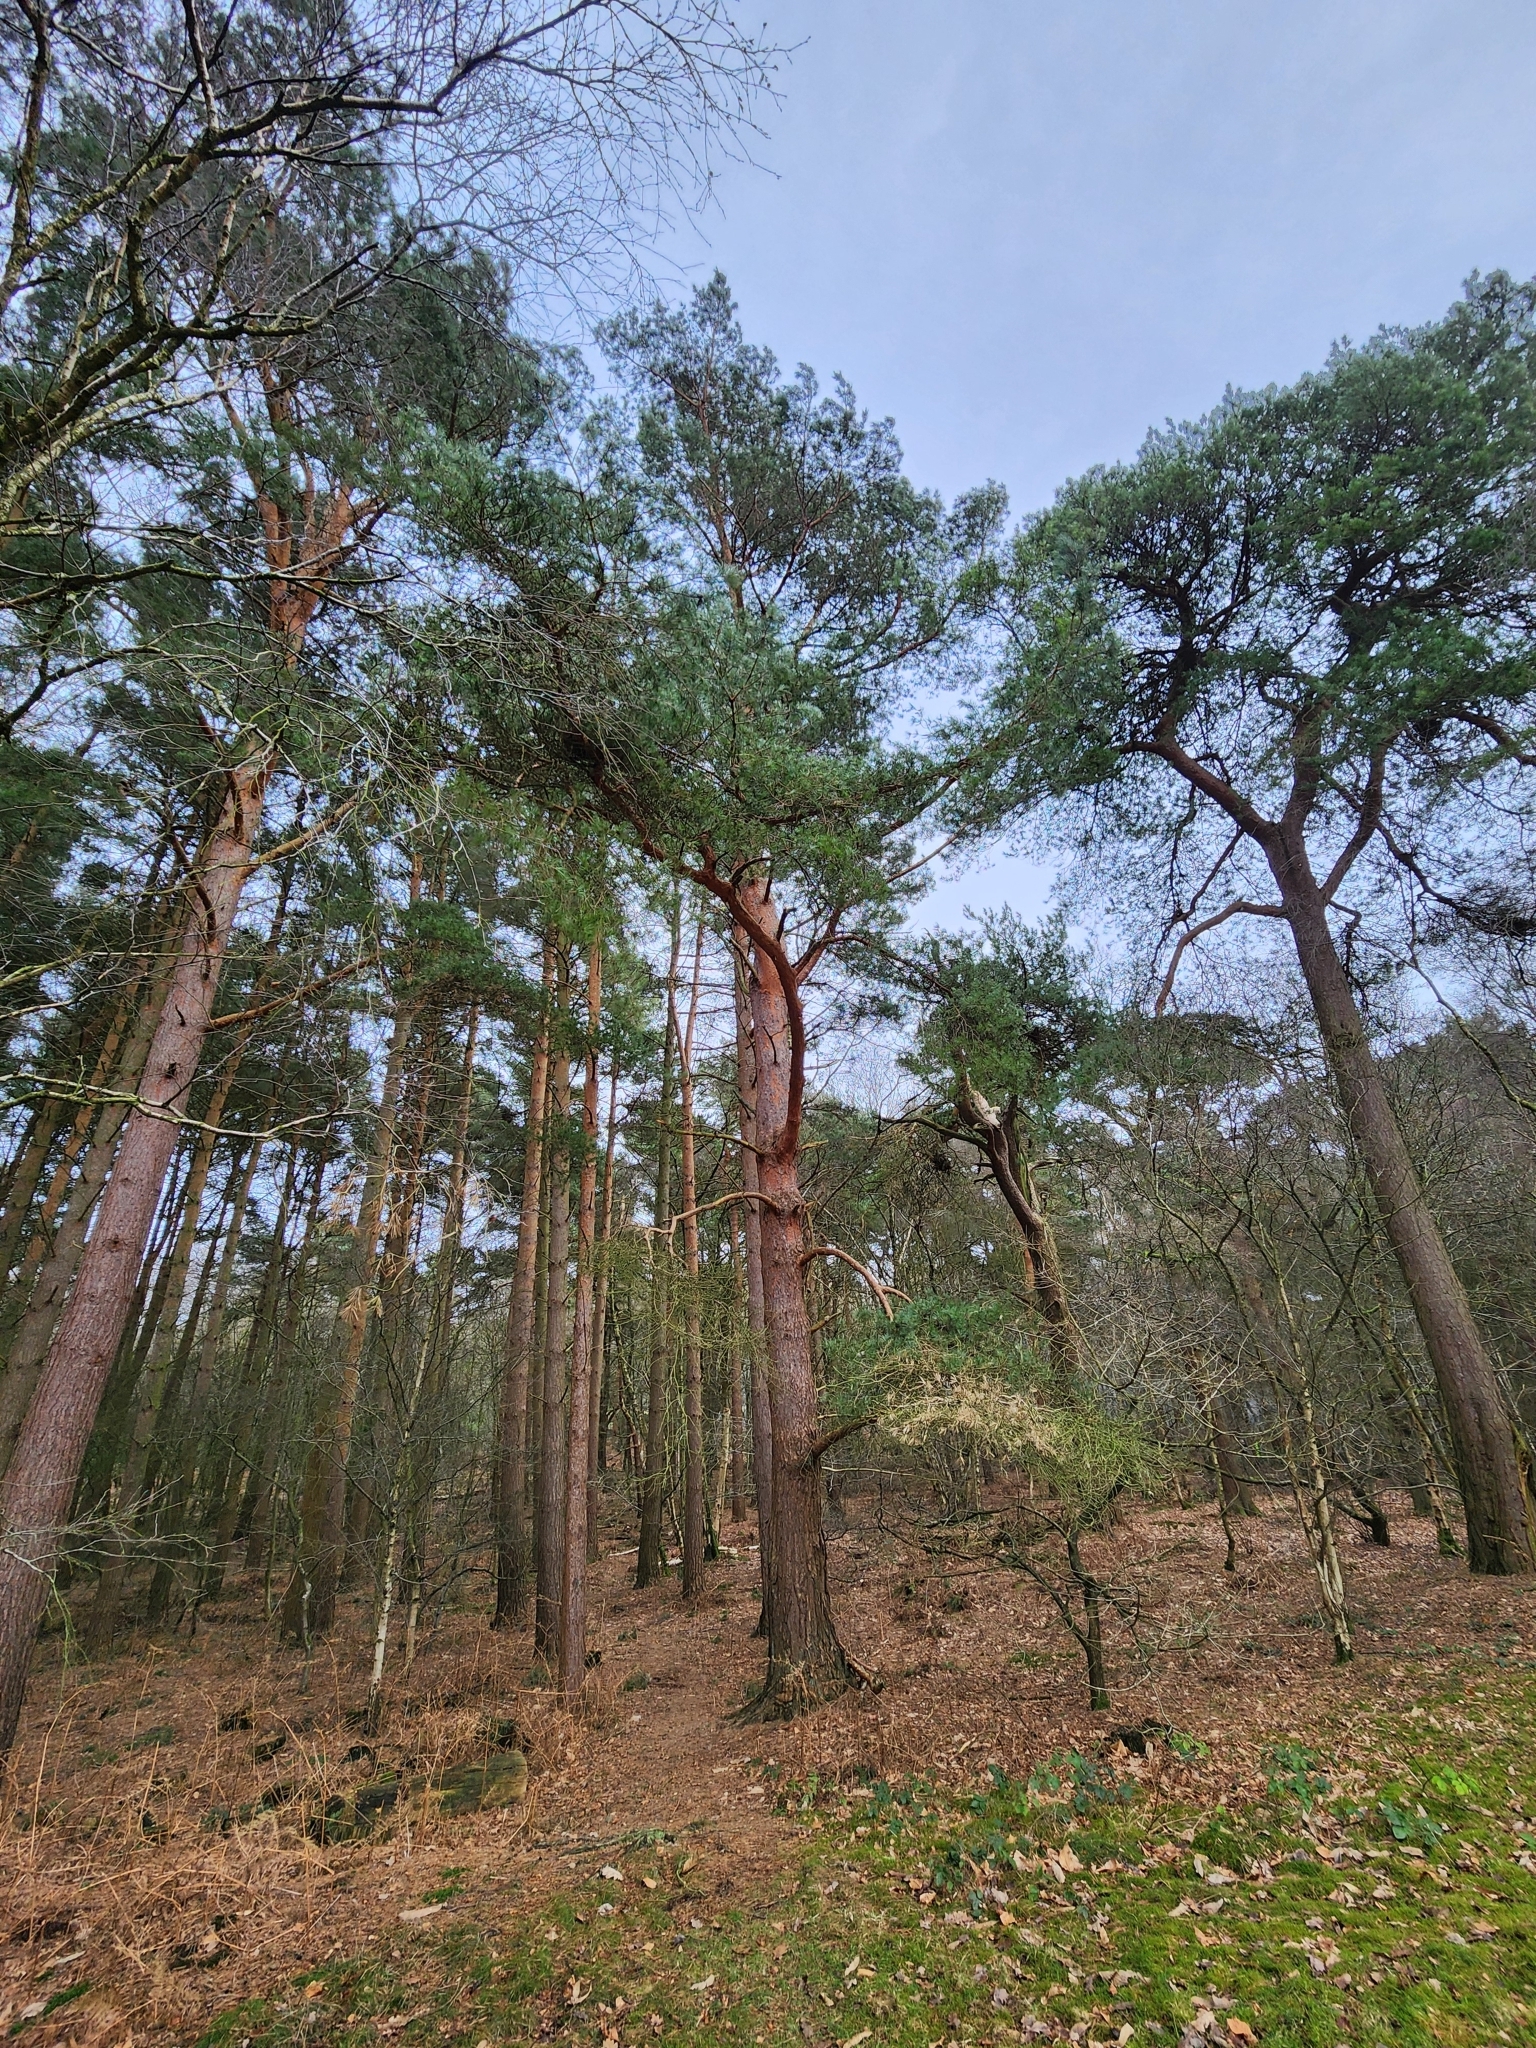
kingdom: Plantae
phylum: Tracheophyta
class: Pinopsida
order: Pinales
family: Pinaceae
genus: Pinus
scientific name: Pinus sylvestris
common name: Scots pine
